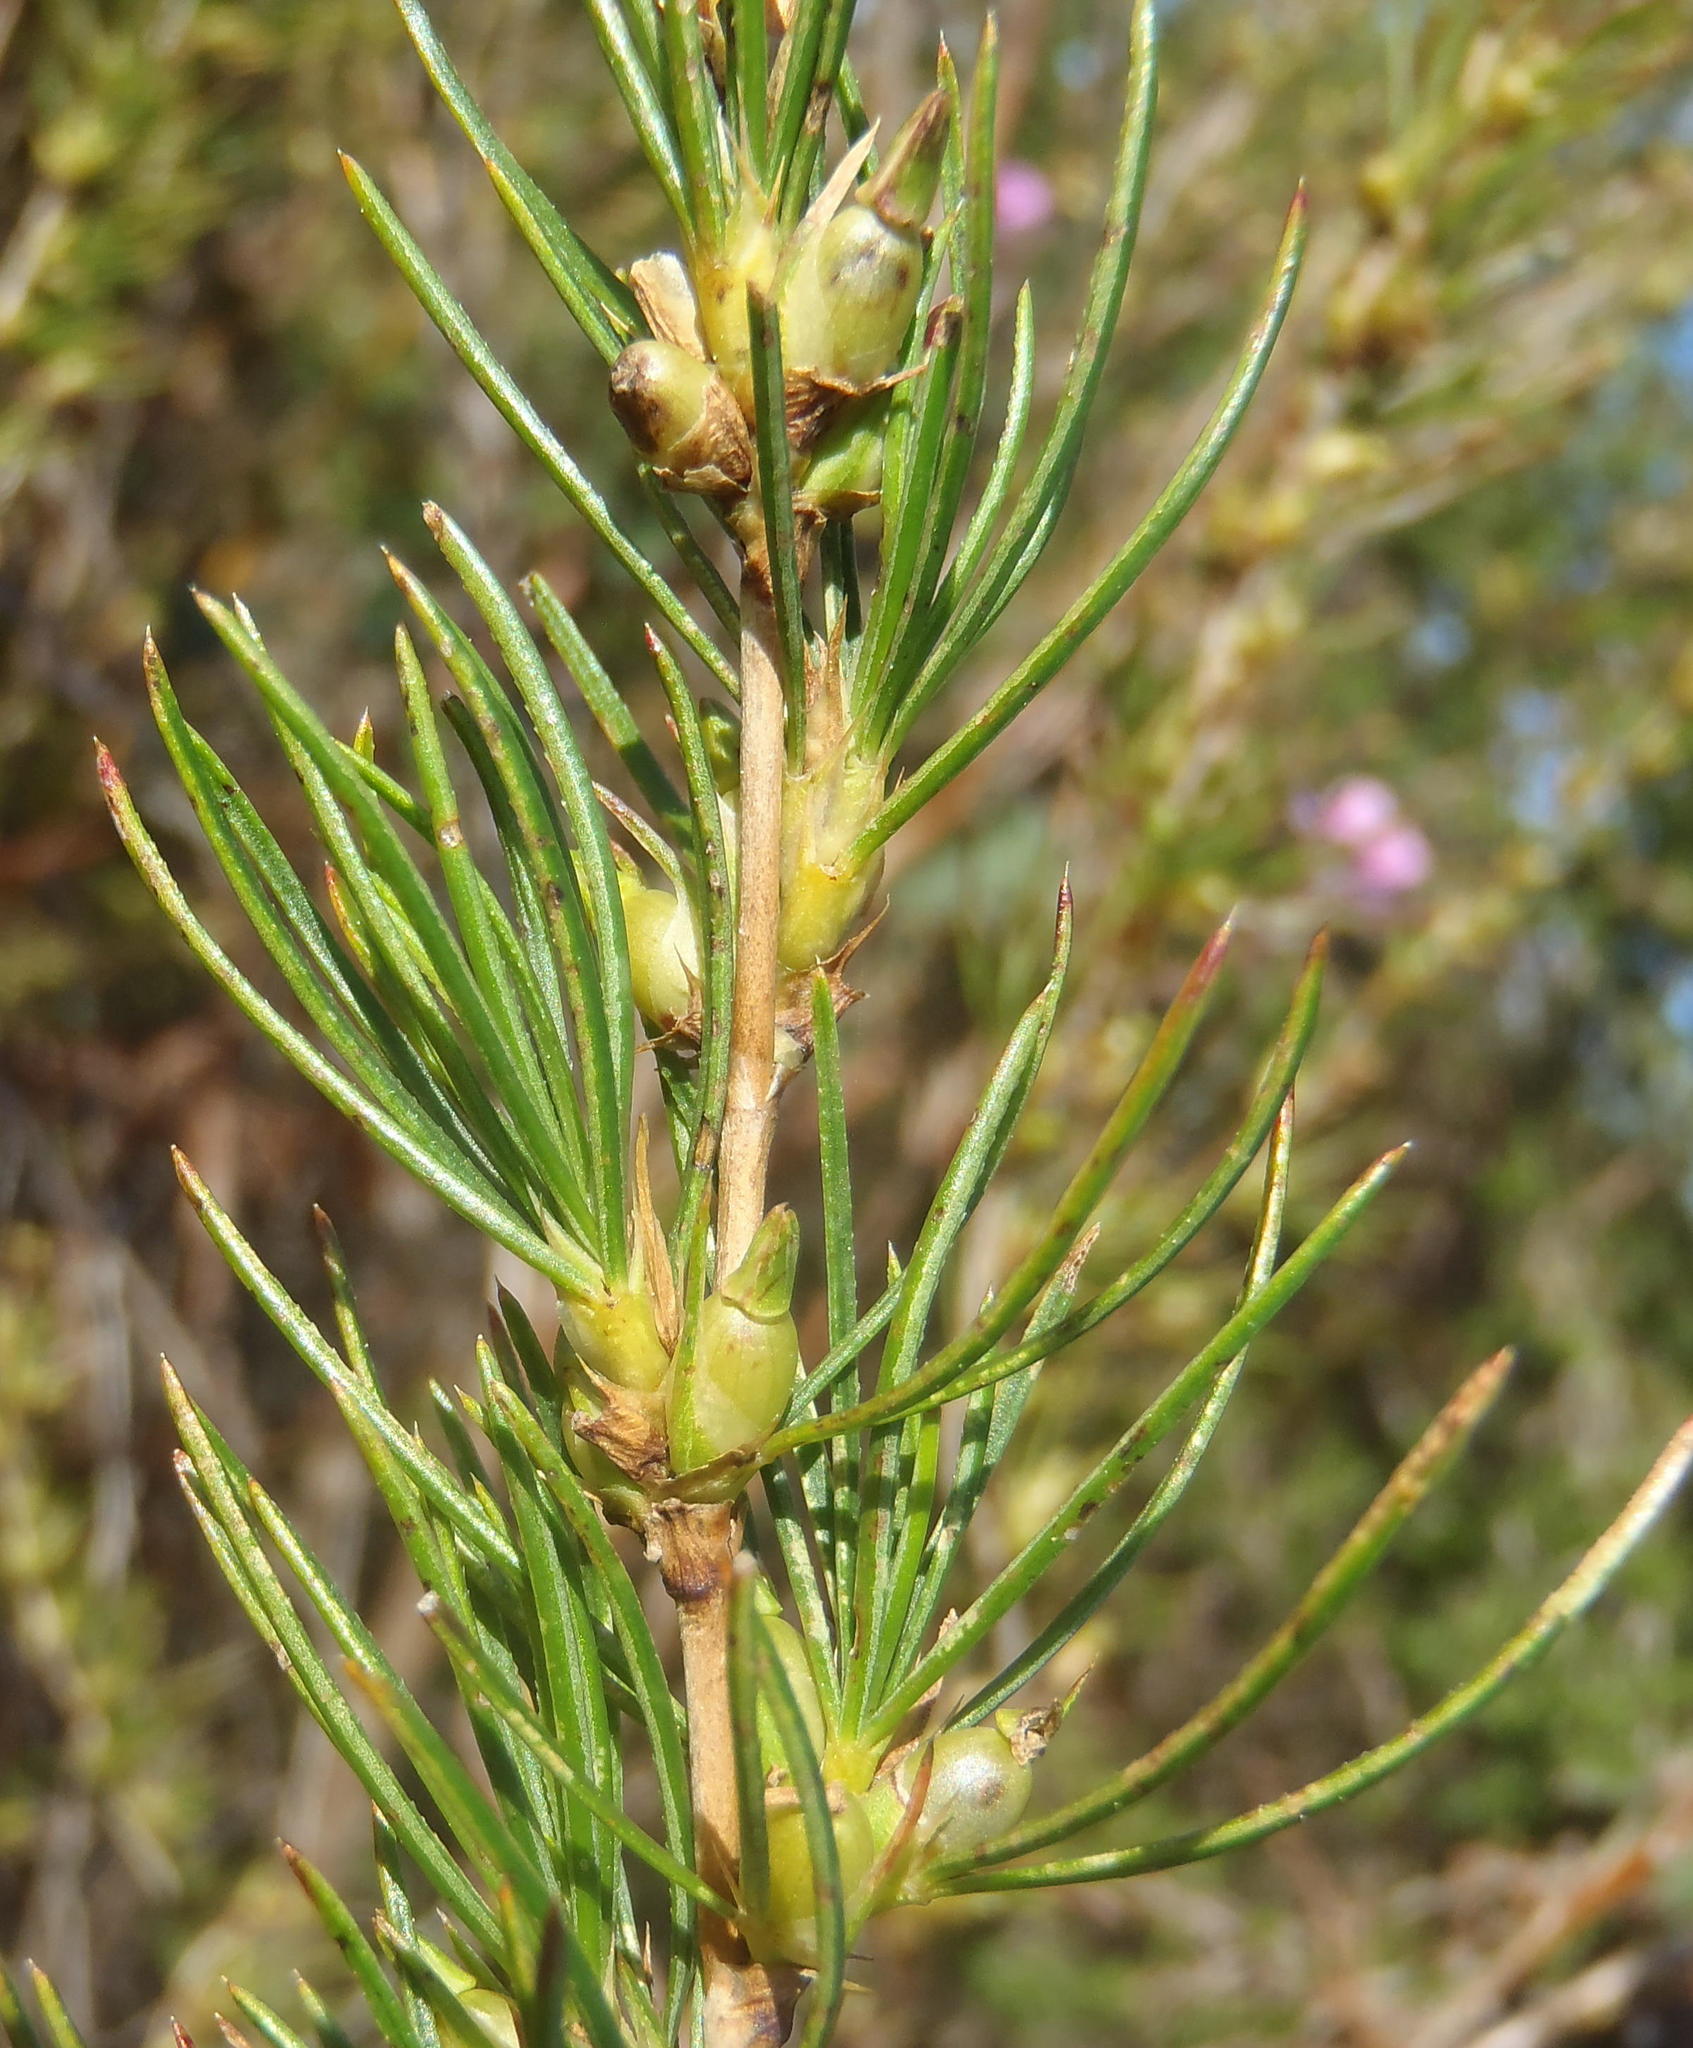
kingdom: Plantae
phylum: Tracheophyta
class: Magnoliopsida
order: Rosales
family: Rosaceae
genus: Cliffortia
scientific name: Cliffortia burchellii
